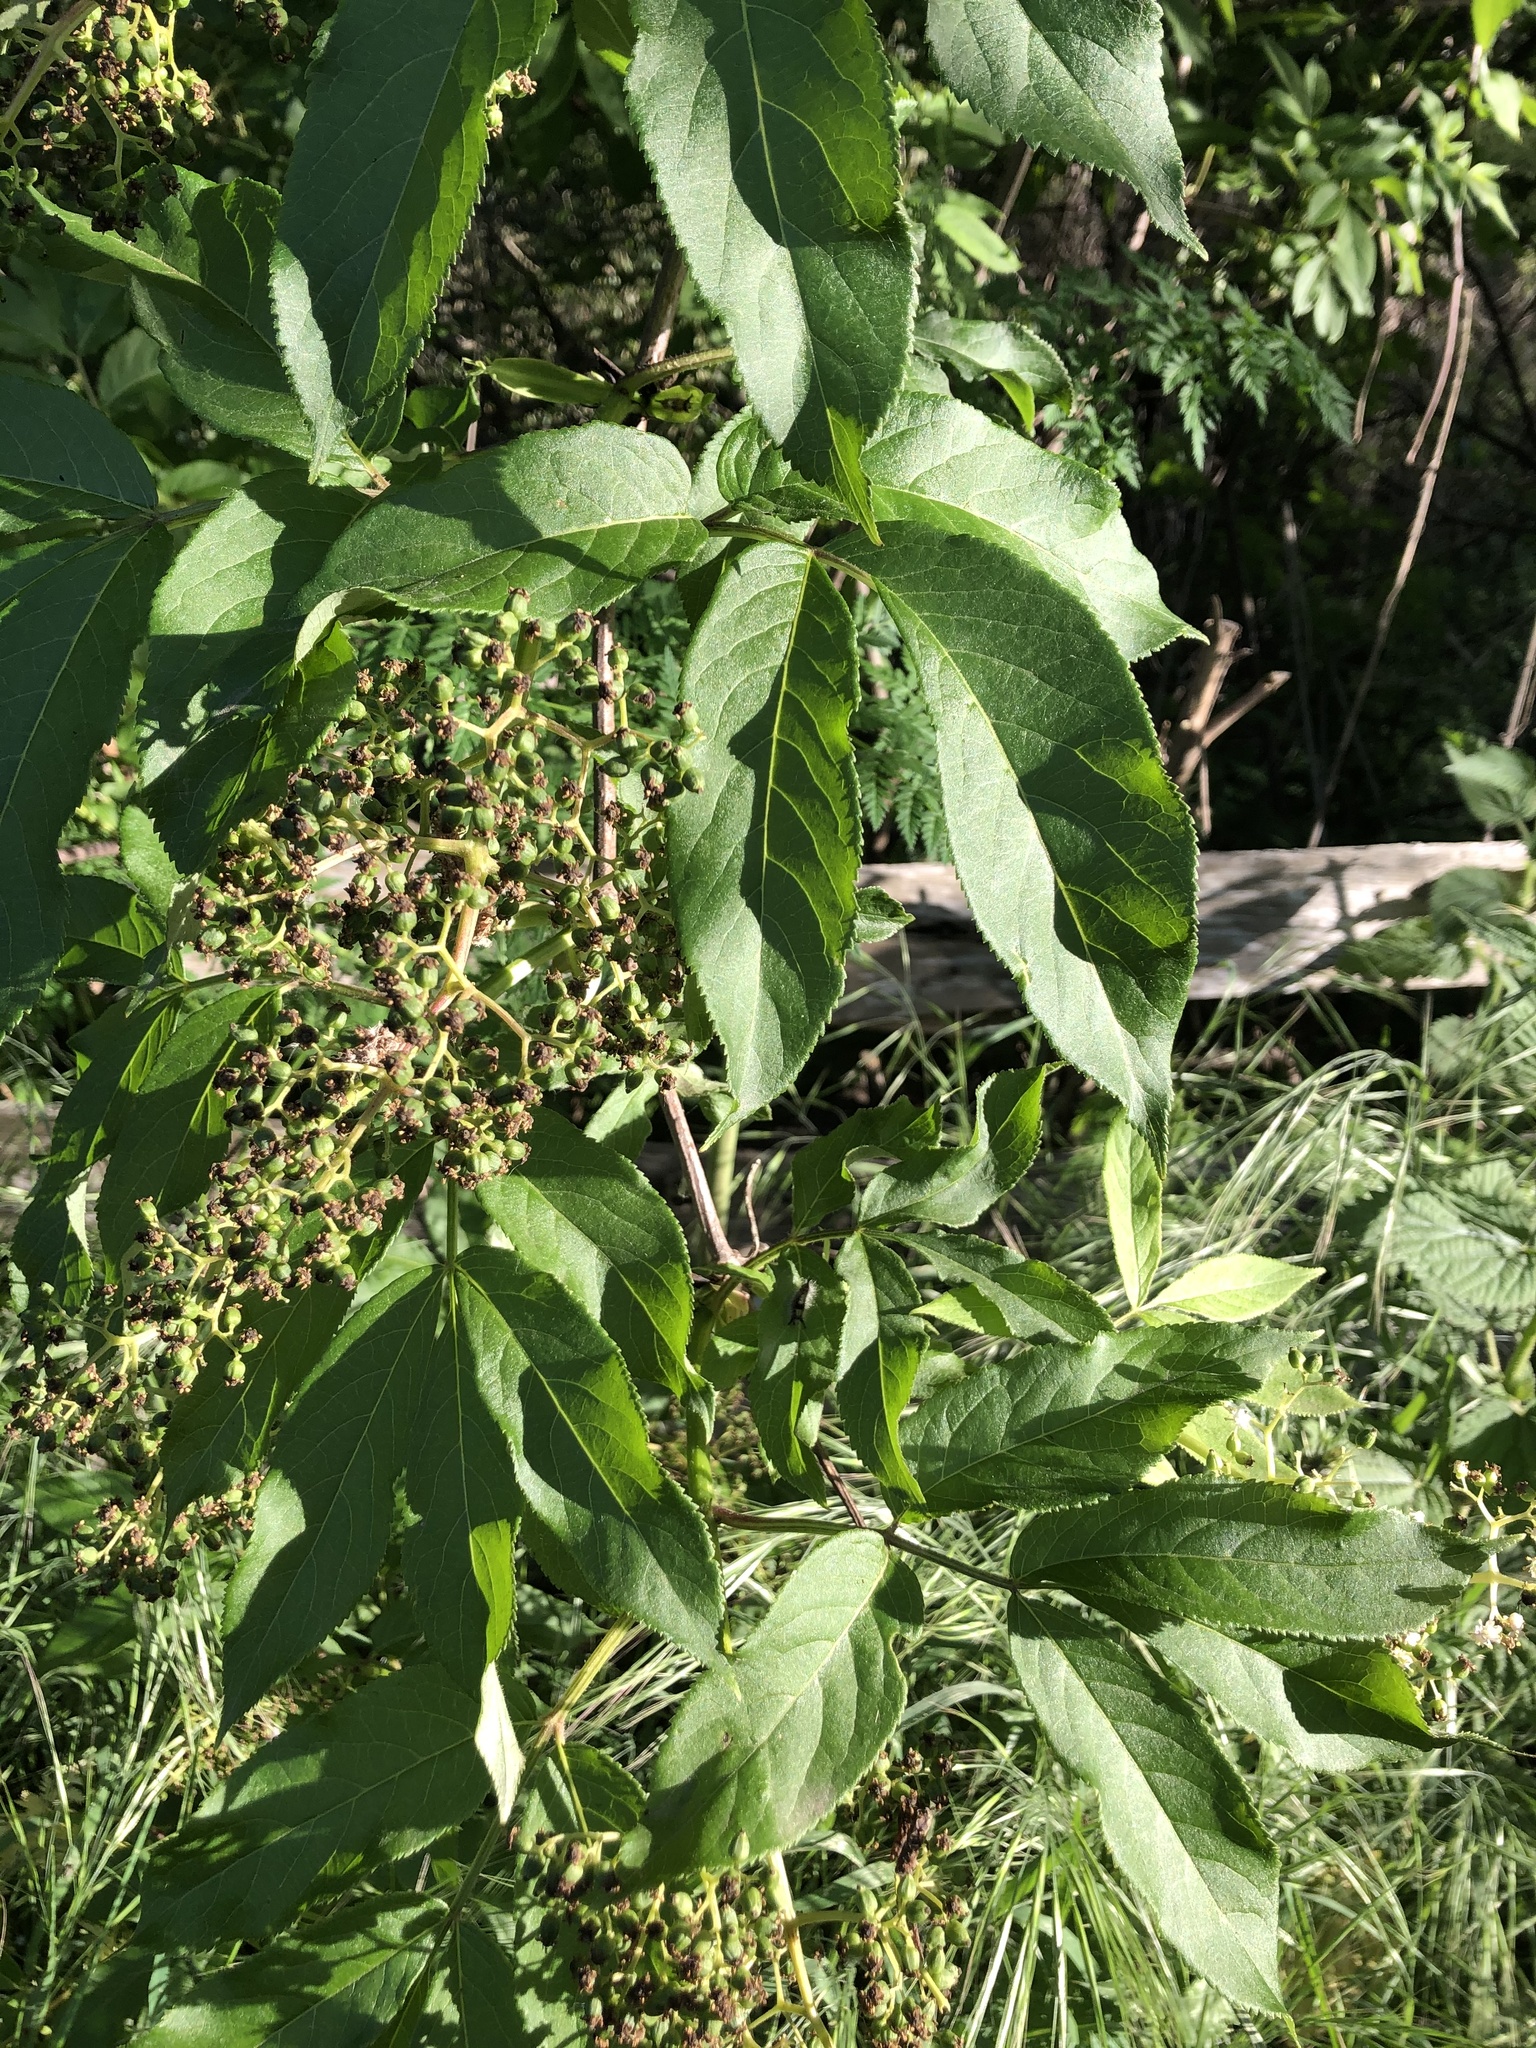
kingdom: Plantae
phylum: Tracheophyta
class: Magnoliopsida
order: Dipsacales
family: Viburnaceae
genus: Sambucus
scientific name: Sambucus racemosa
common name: Red-berried elder
